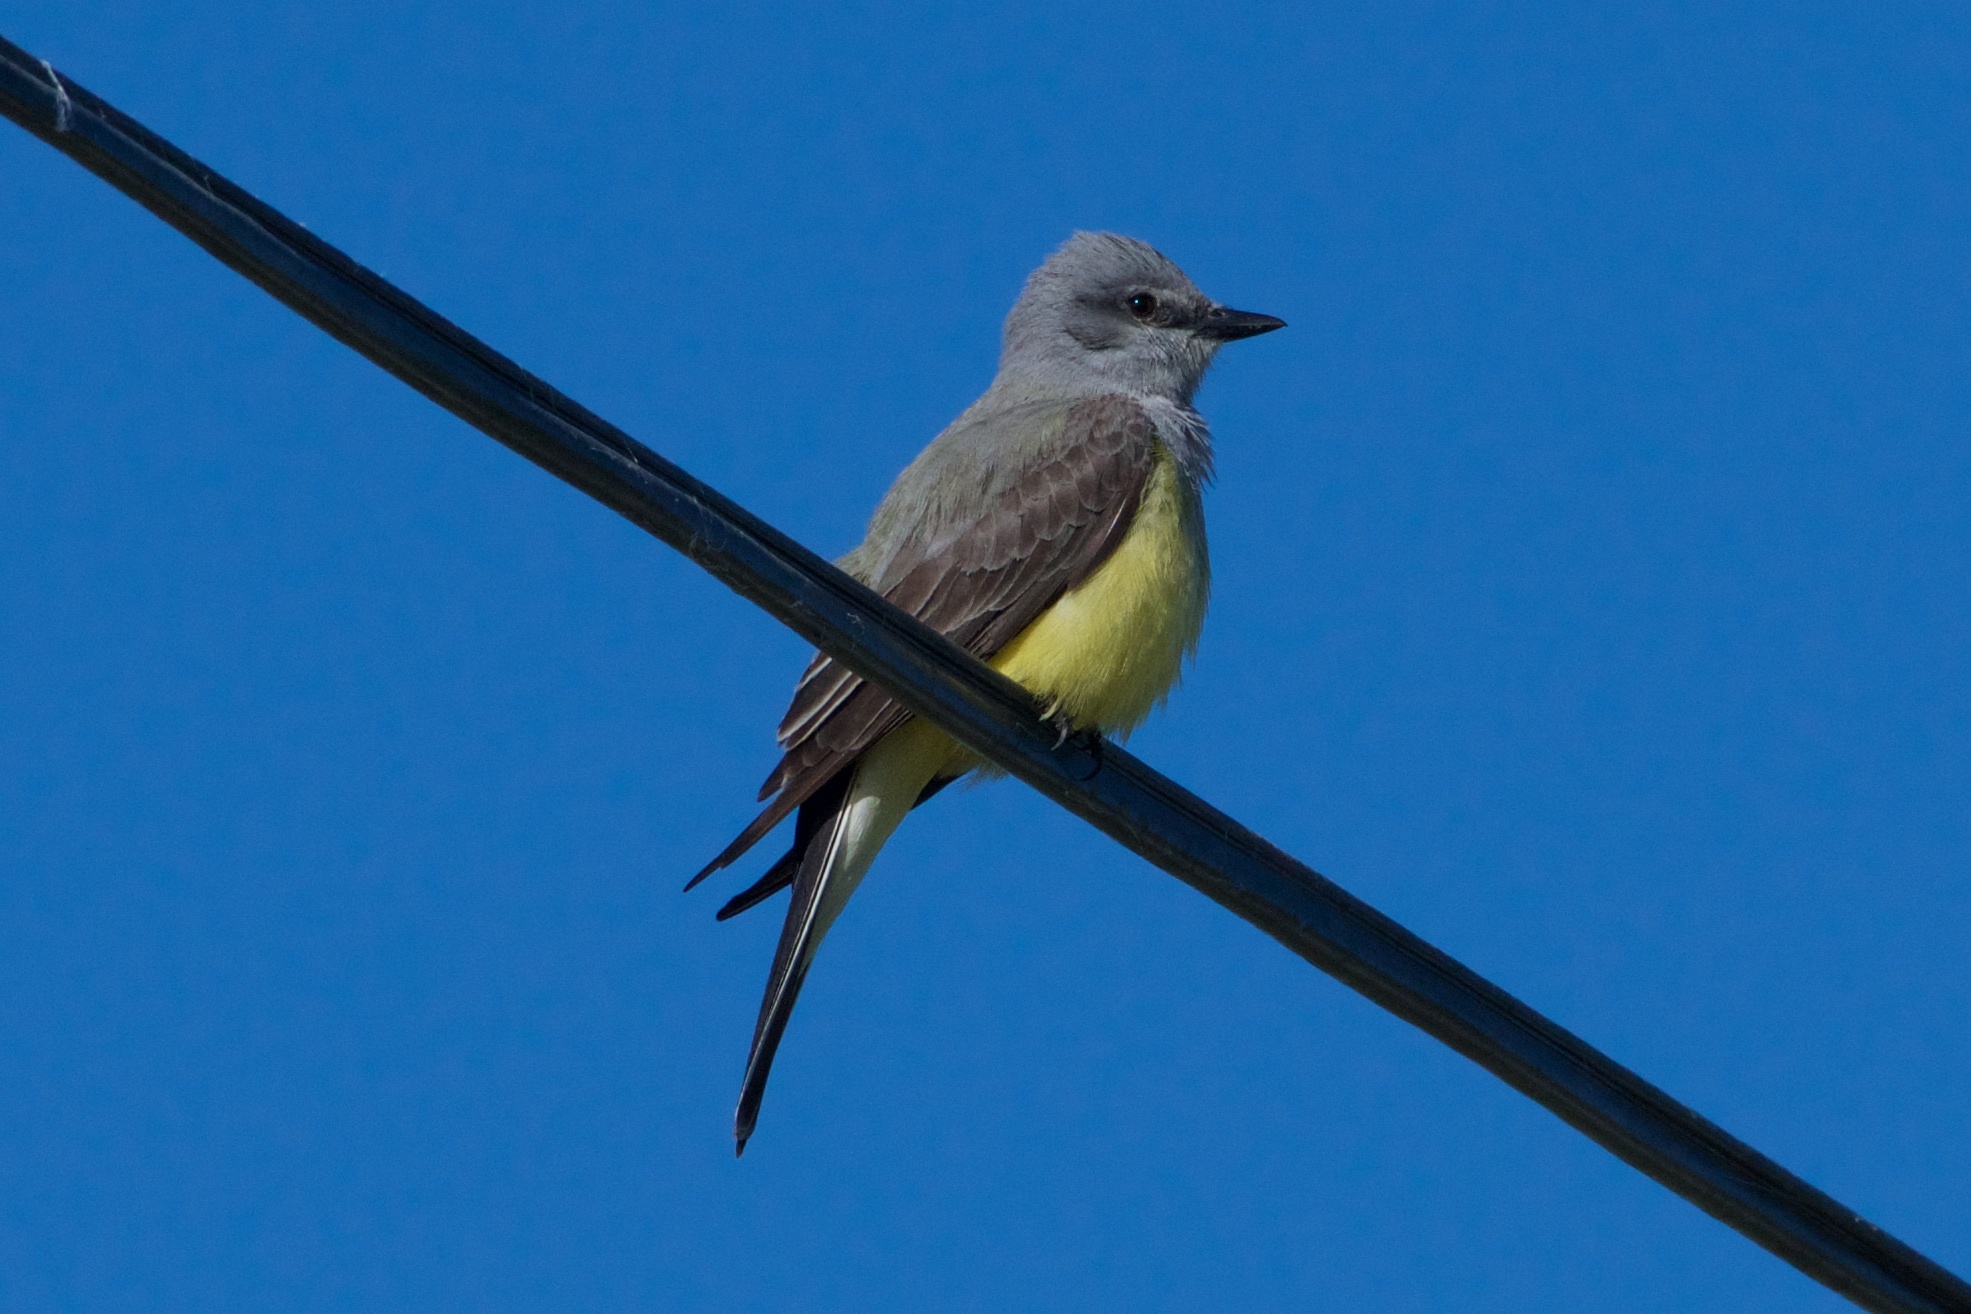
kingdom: Animalia
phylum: Chordata
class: Aves
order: Passeriformes
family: Tyrannidae
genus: Tyrannus
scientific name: Tyrannus verticalis
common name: Western kingbird
